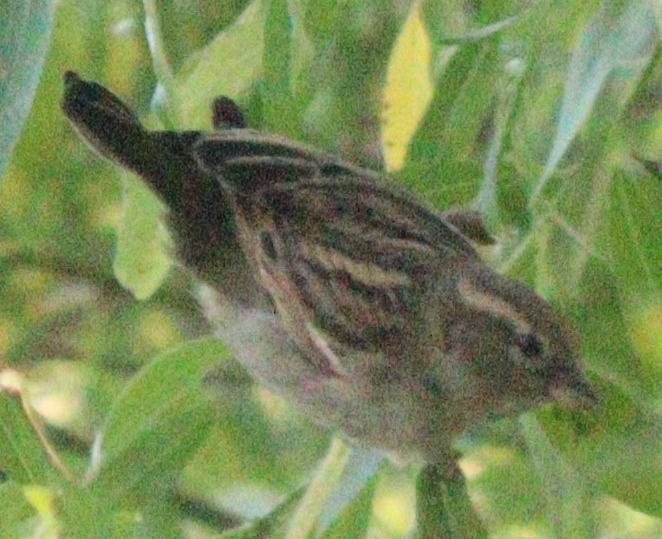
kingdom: Animalia
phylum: Chordata
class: Aves
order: Passeriformes
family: Passeridae
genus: Passer
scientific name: Passer domesticus
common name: House sparrow
